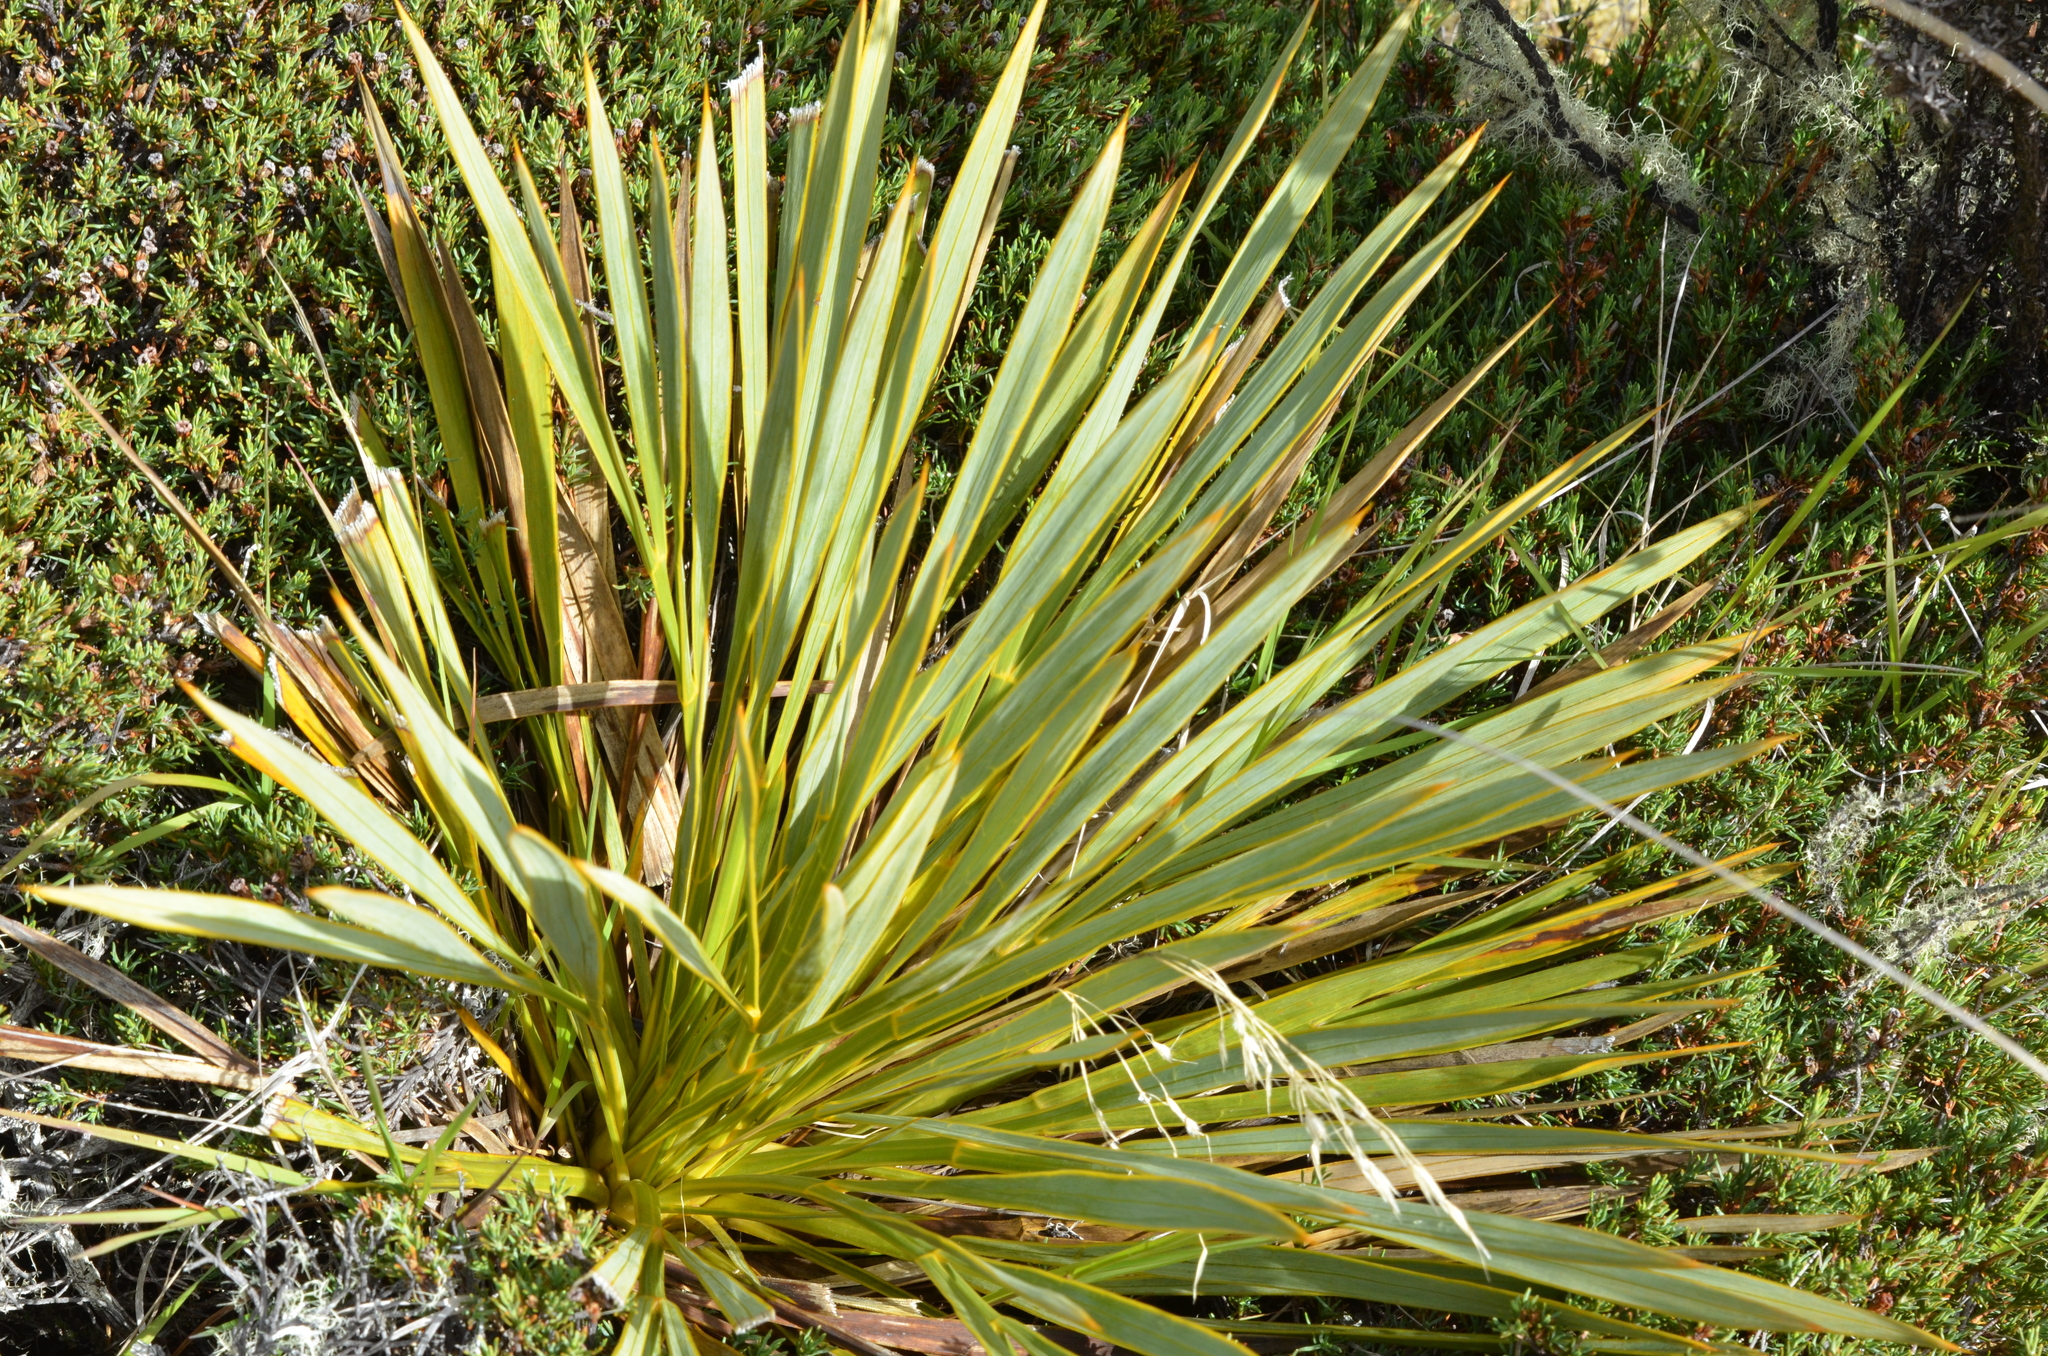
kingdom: Plantae
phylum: Tracheophyta
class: Magnoliopsida
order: Apiales
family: Apiaceae
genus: Aciphylla
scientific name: Aciphylla aurea
